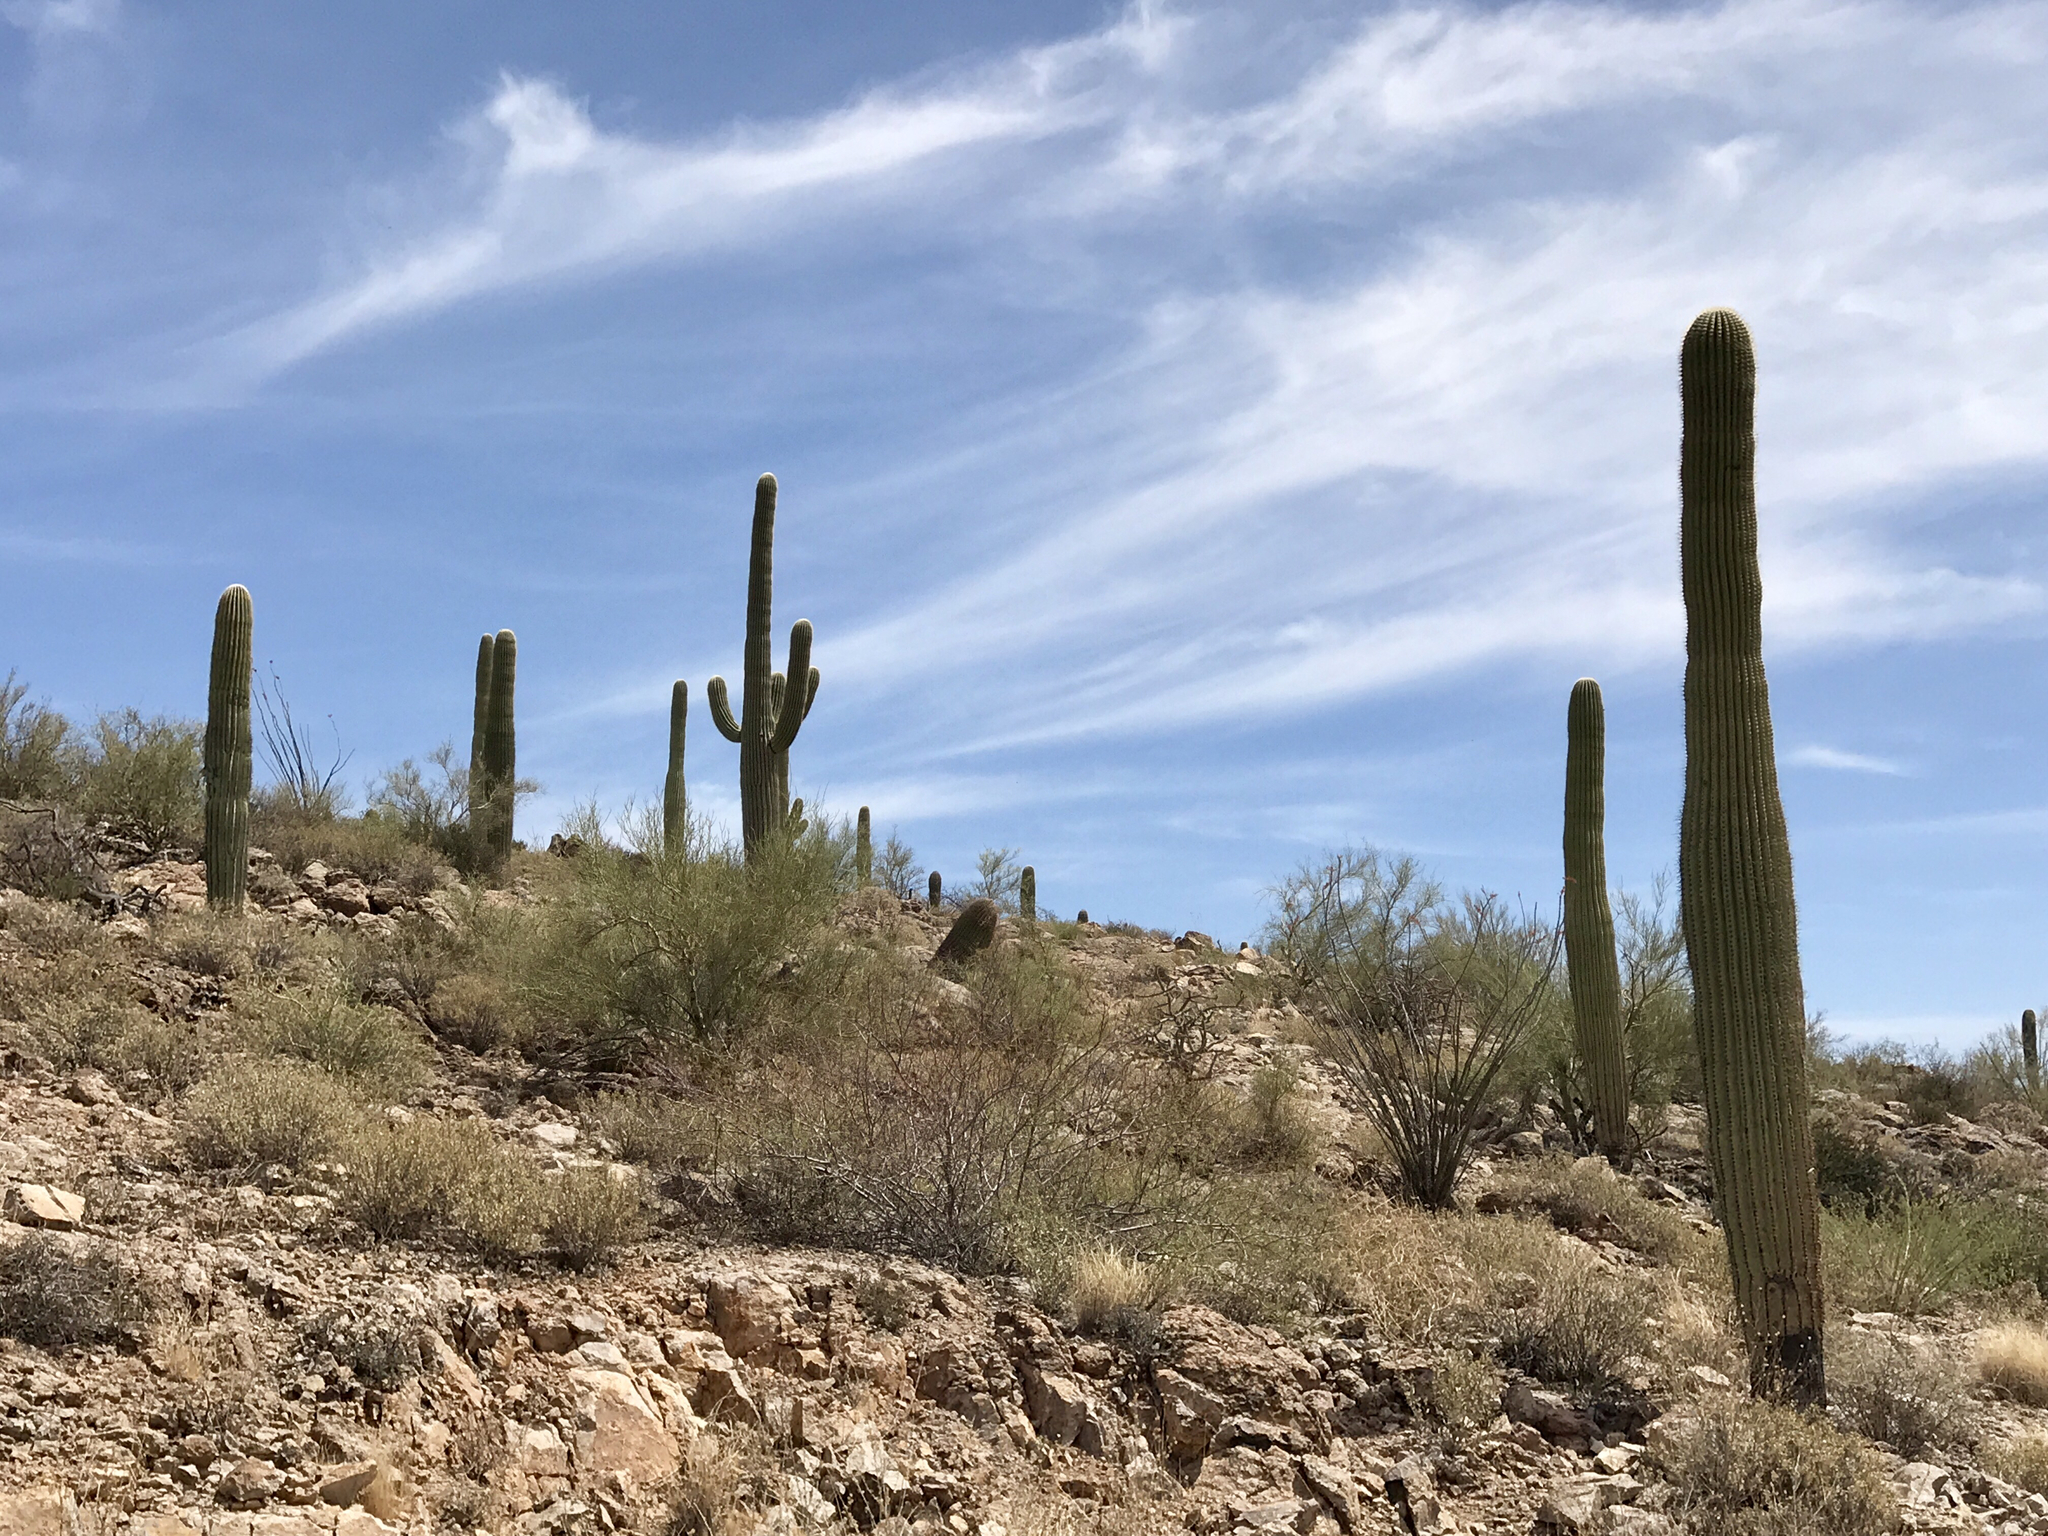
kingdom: Plantae
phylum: Tracheophyta
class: Magnoliopsida
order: Caryophyllales
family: Cactaceae
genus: Carnegiea
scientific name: Carnegiea gigantea
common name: Saguaro
